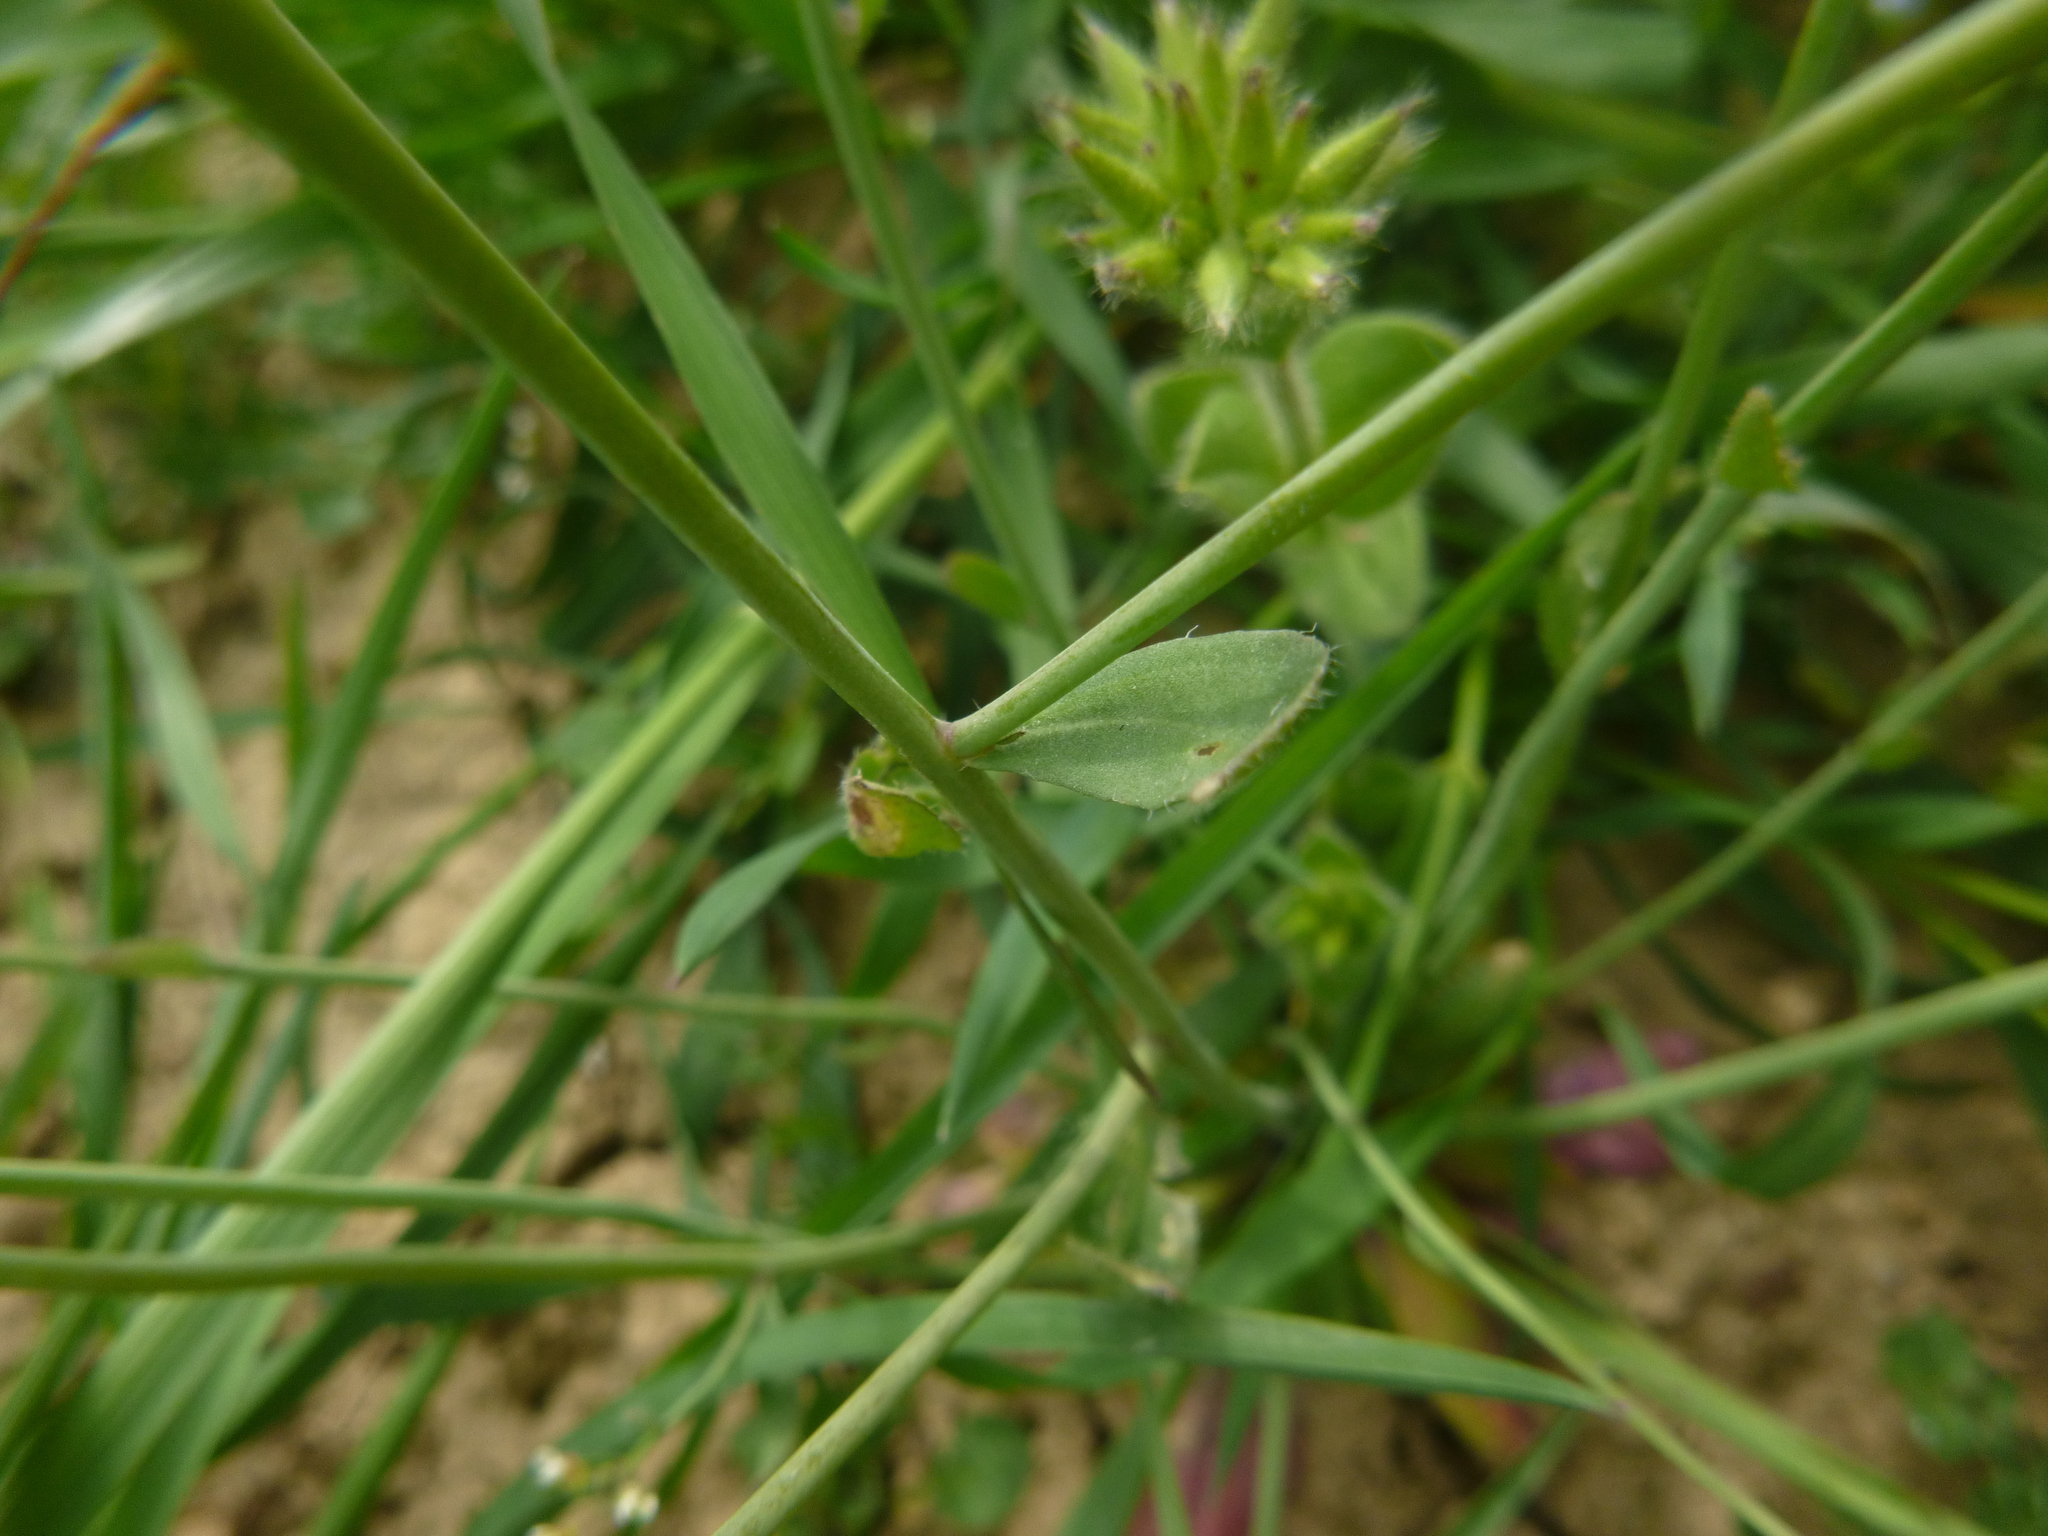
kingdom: Plantae
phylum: Tracheophyta
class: Magnoliopsida
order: Brassicales
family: Brassicaceae
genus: Arabidopsis
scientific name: Arabidopsis thaliana
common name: Thale cress
